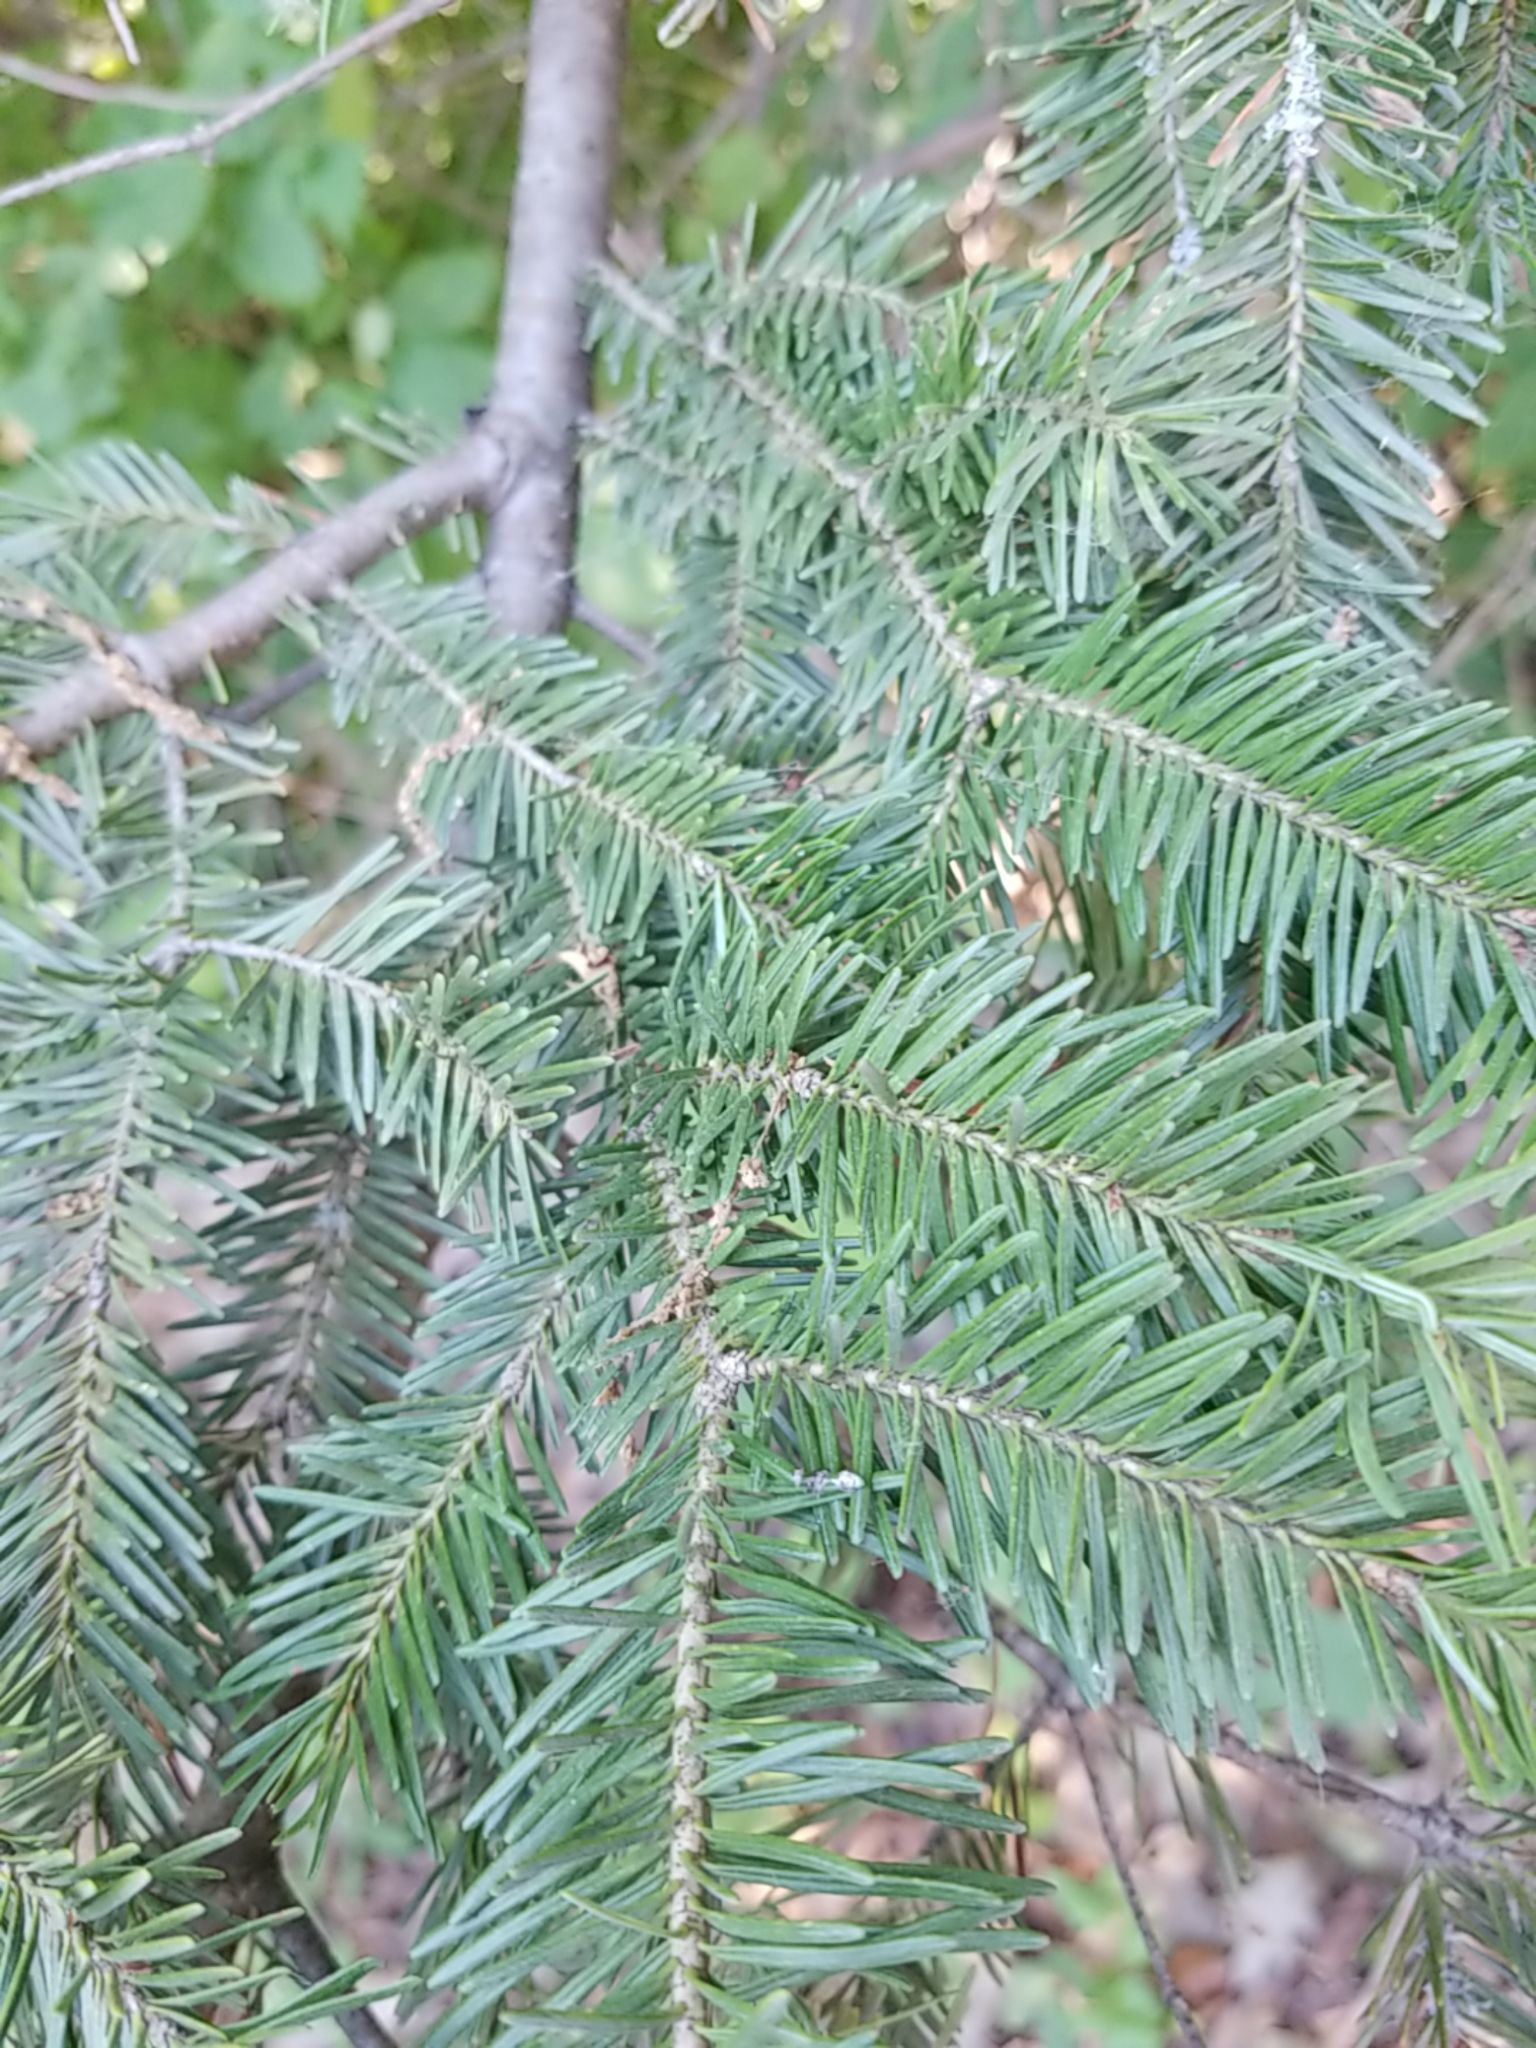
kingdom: Plantae
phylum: Tracheophyta
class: Pinopsida
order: Pinales
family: Pinaceae
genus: Abies
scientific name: Abies balsamea
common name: Balsam fir
